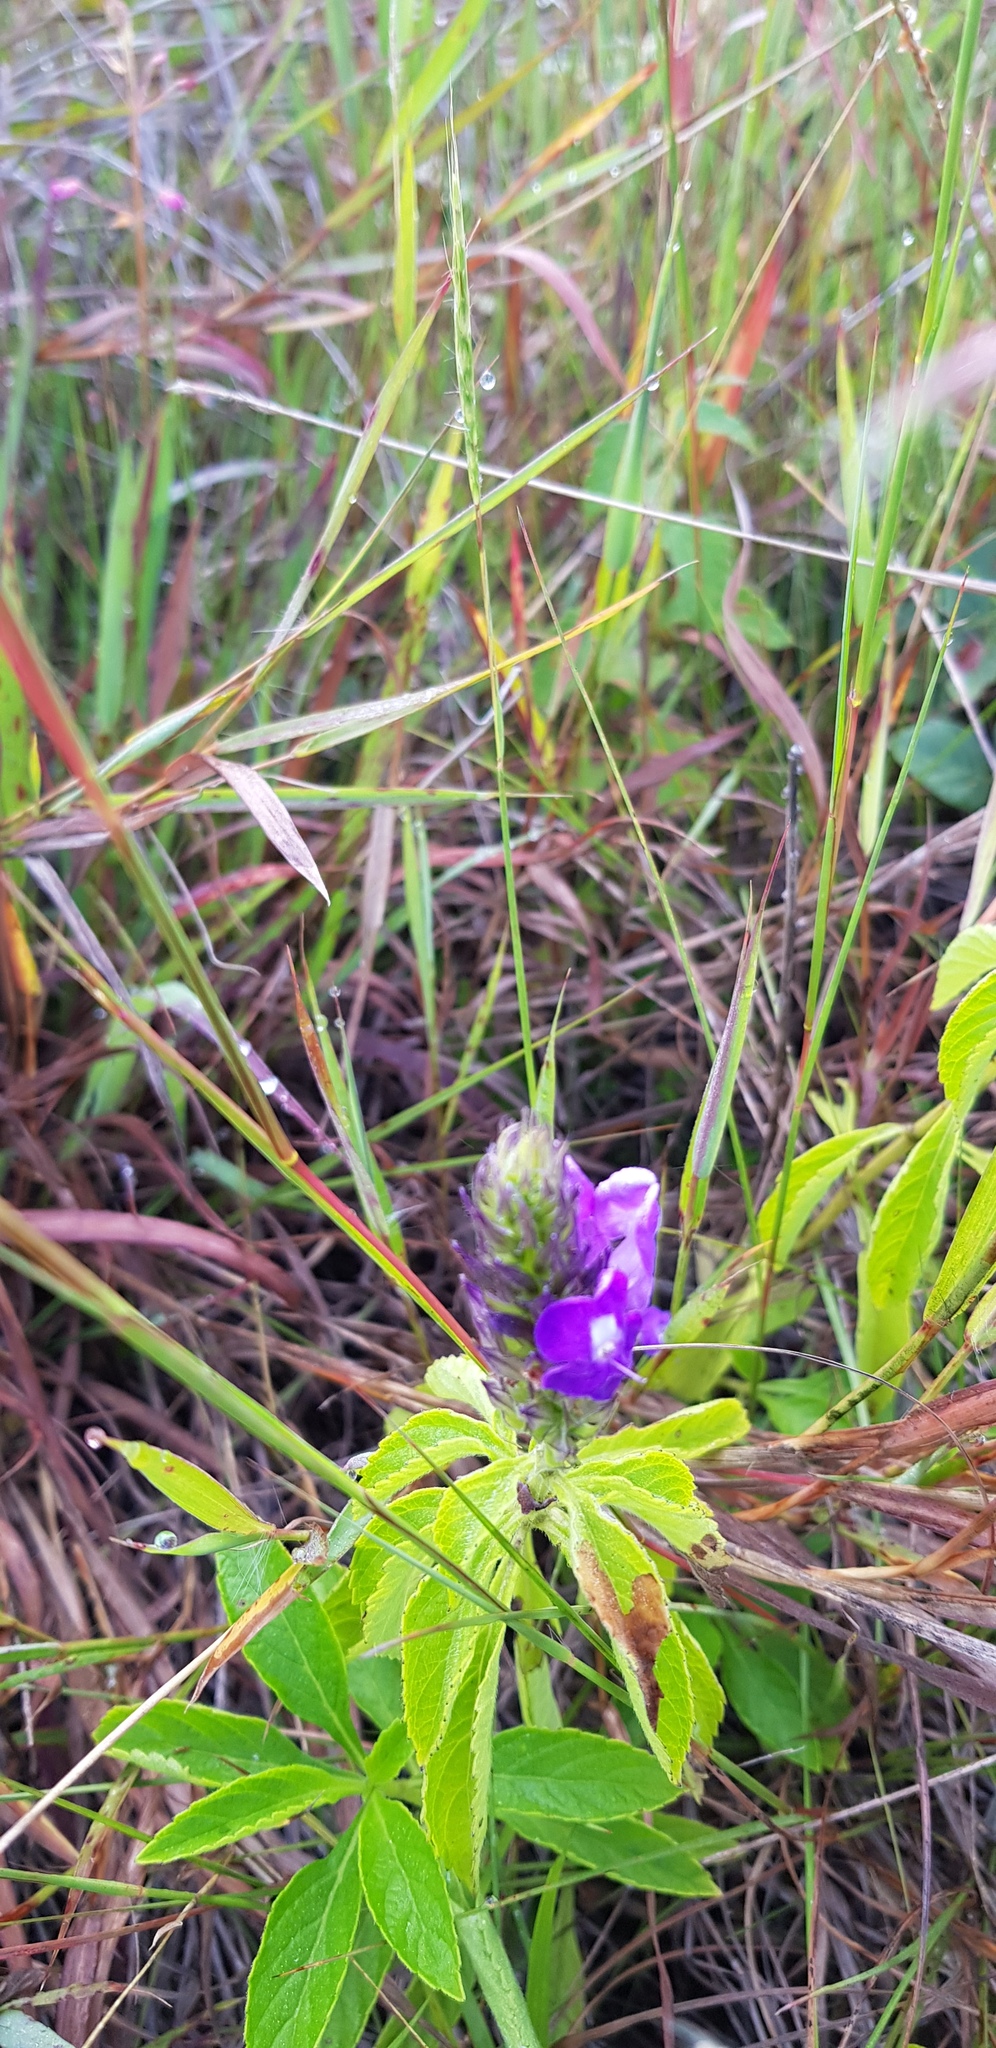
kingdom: Plantae
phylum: Tracheophyta
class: Magnoliopsida
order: Lamiales
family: Verbenaceae
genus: Stachytarpheta
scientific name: Stachytarpheta acuminata
